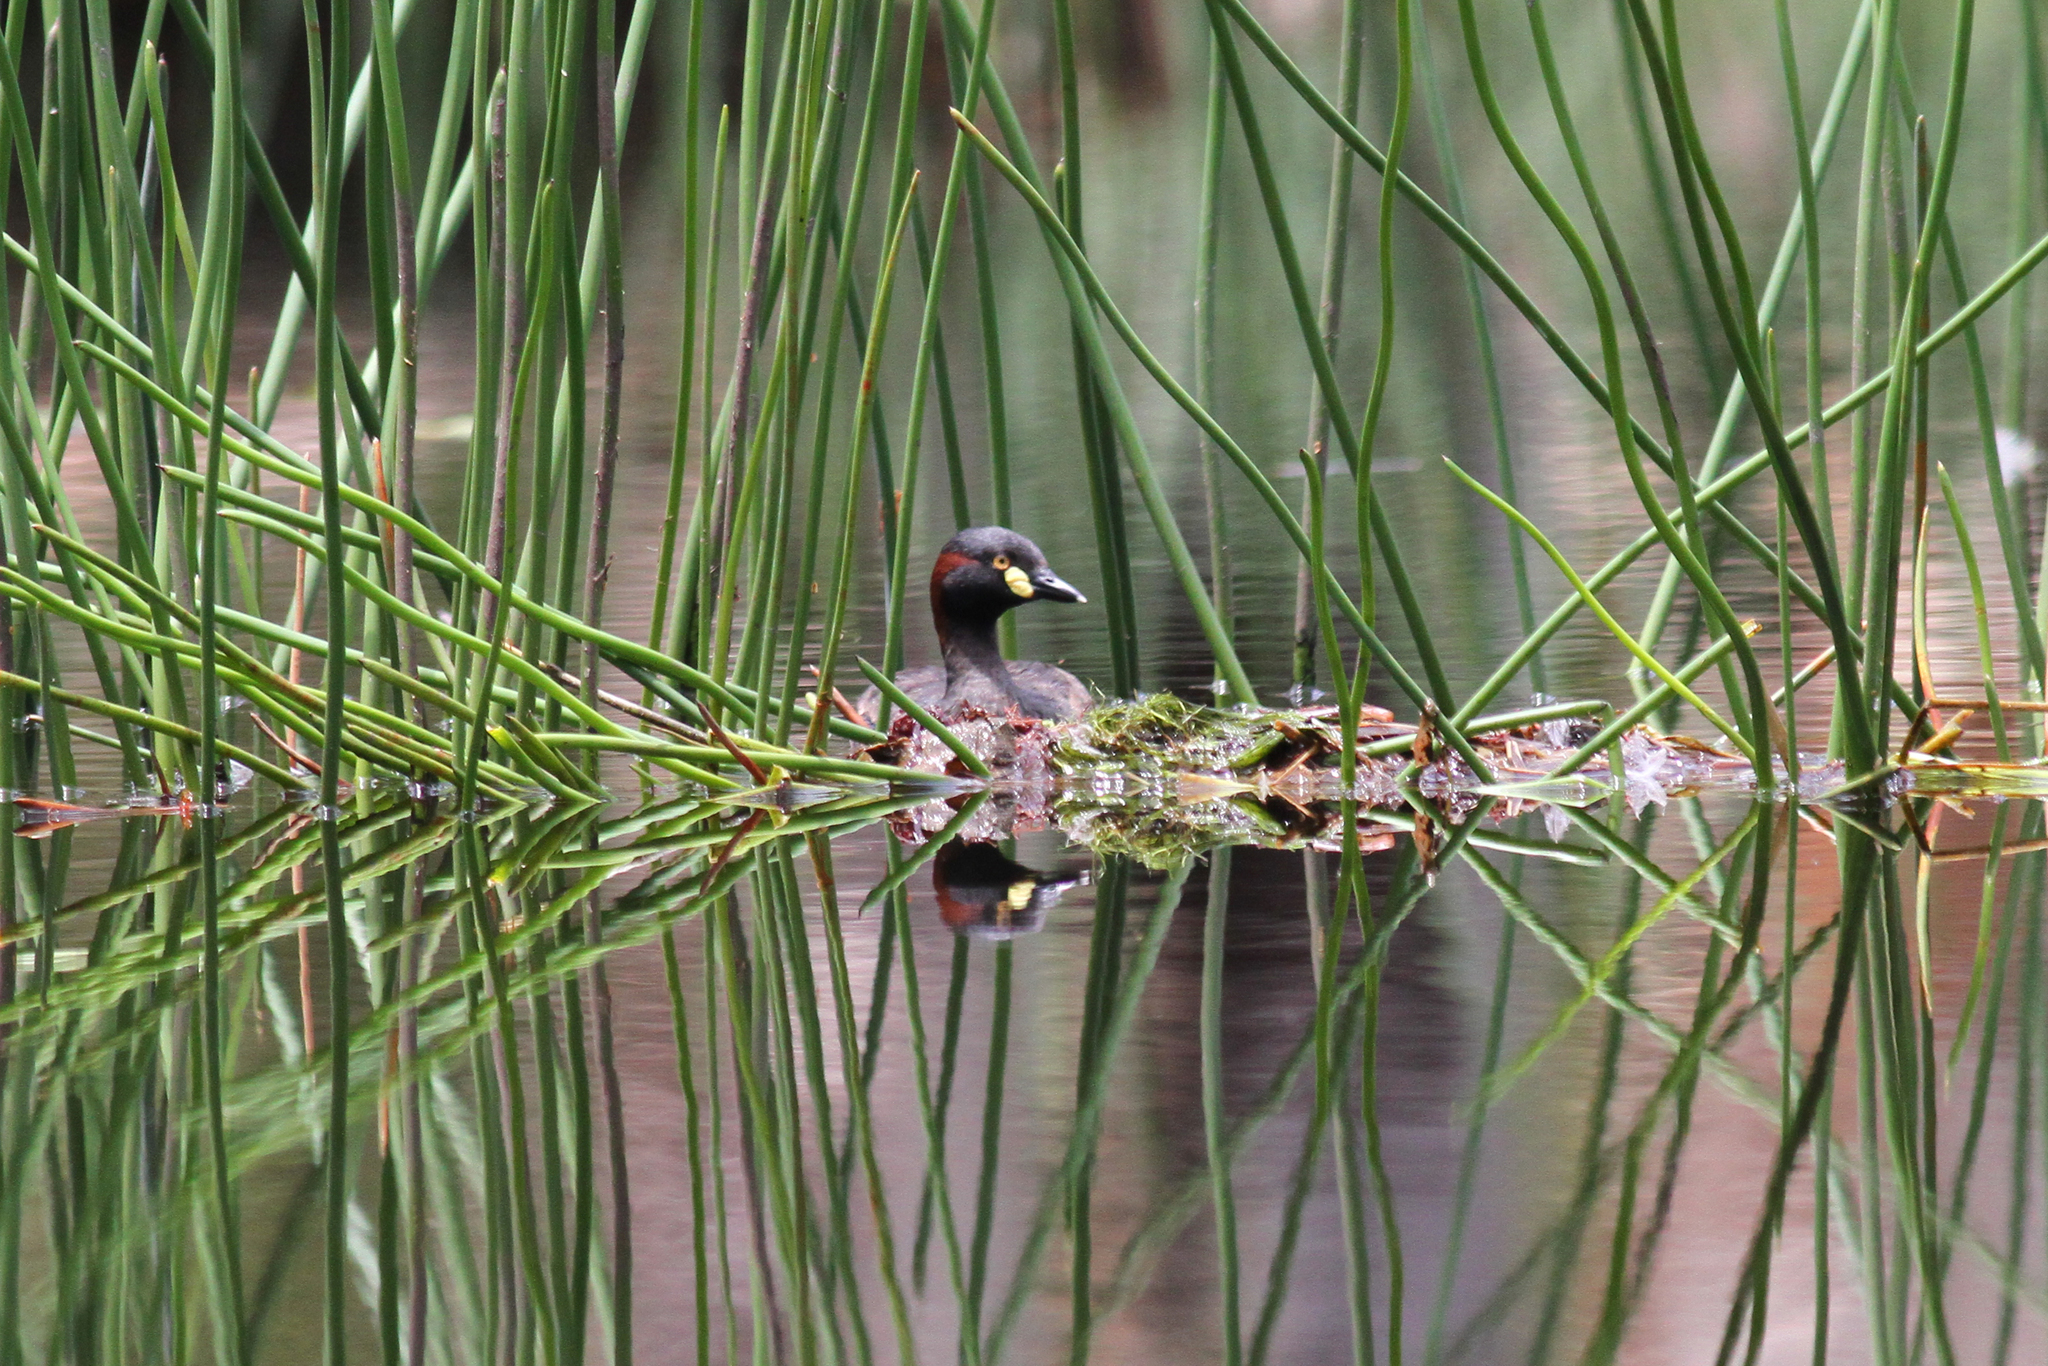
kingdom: Animalia
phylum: Chordata
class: Aves
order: Podicipediformes
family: Podicipedidae
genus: Tachybaptus
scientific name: Tachybaptus novaehollandiae
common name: Australasian grebe
